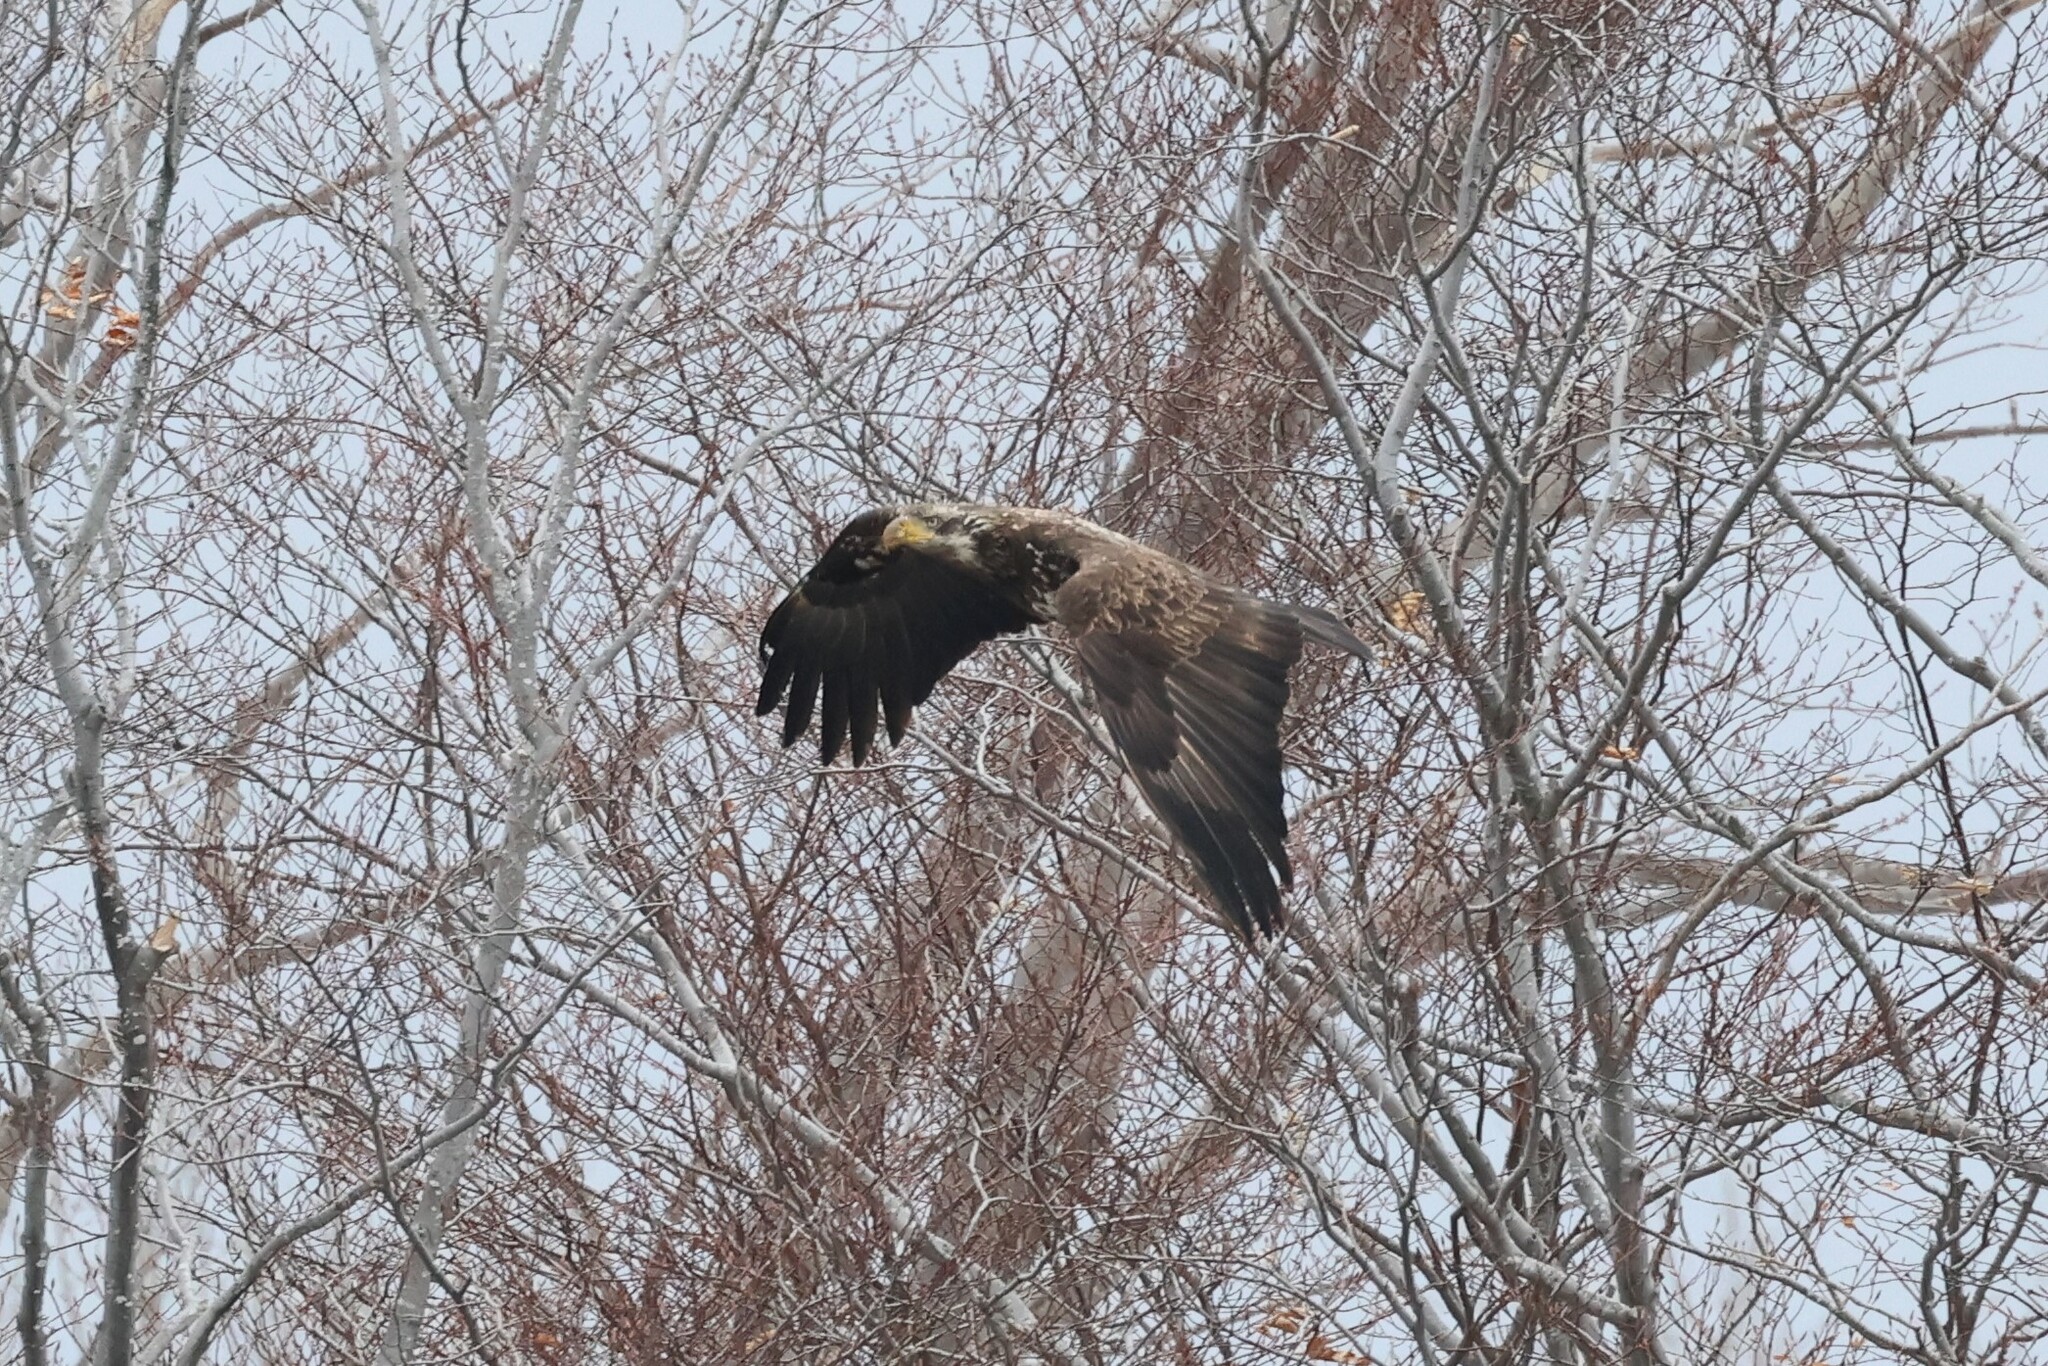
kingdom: Animalia
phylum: Chordata
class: Aves
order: Accipitriformes
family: Accipitridae
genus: Haliaeetus
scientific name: Haliaeetus leucocephalus
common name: Bald eagle
